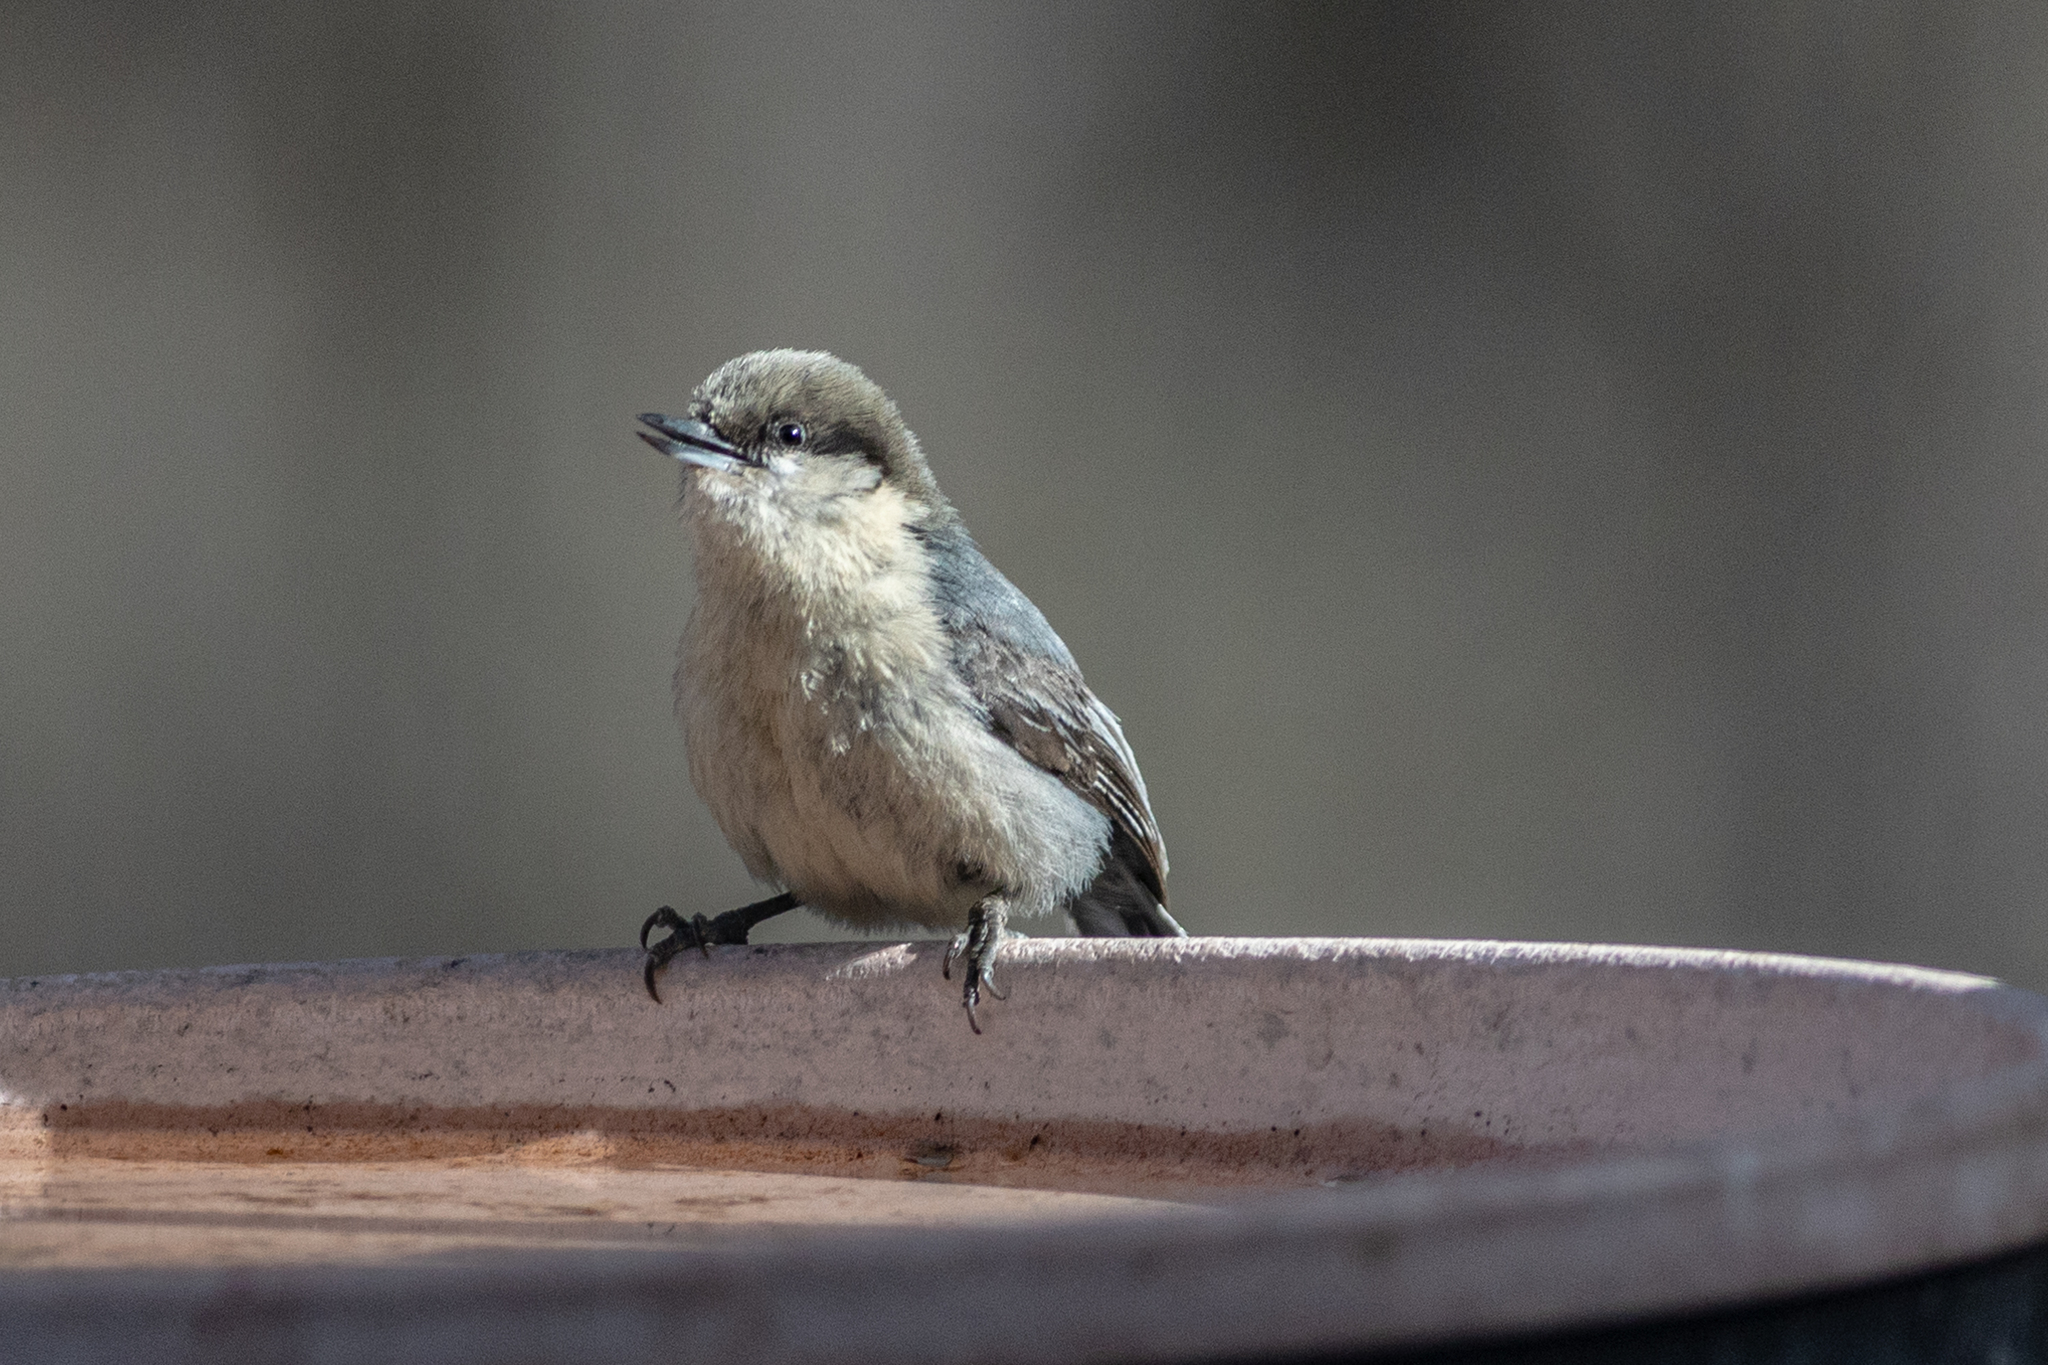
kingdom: Animalia
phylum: Chordata
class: Aves
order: Passeriformes
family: Sittidae
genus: Sitta
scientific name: Sitta pygmaea
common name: Pygmy nuthatch
